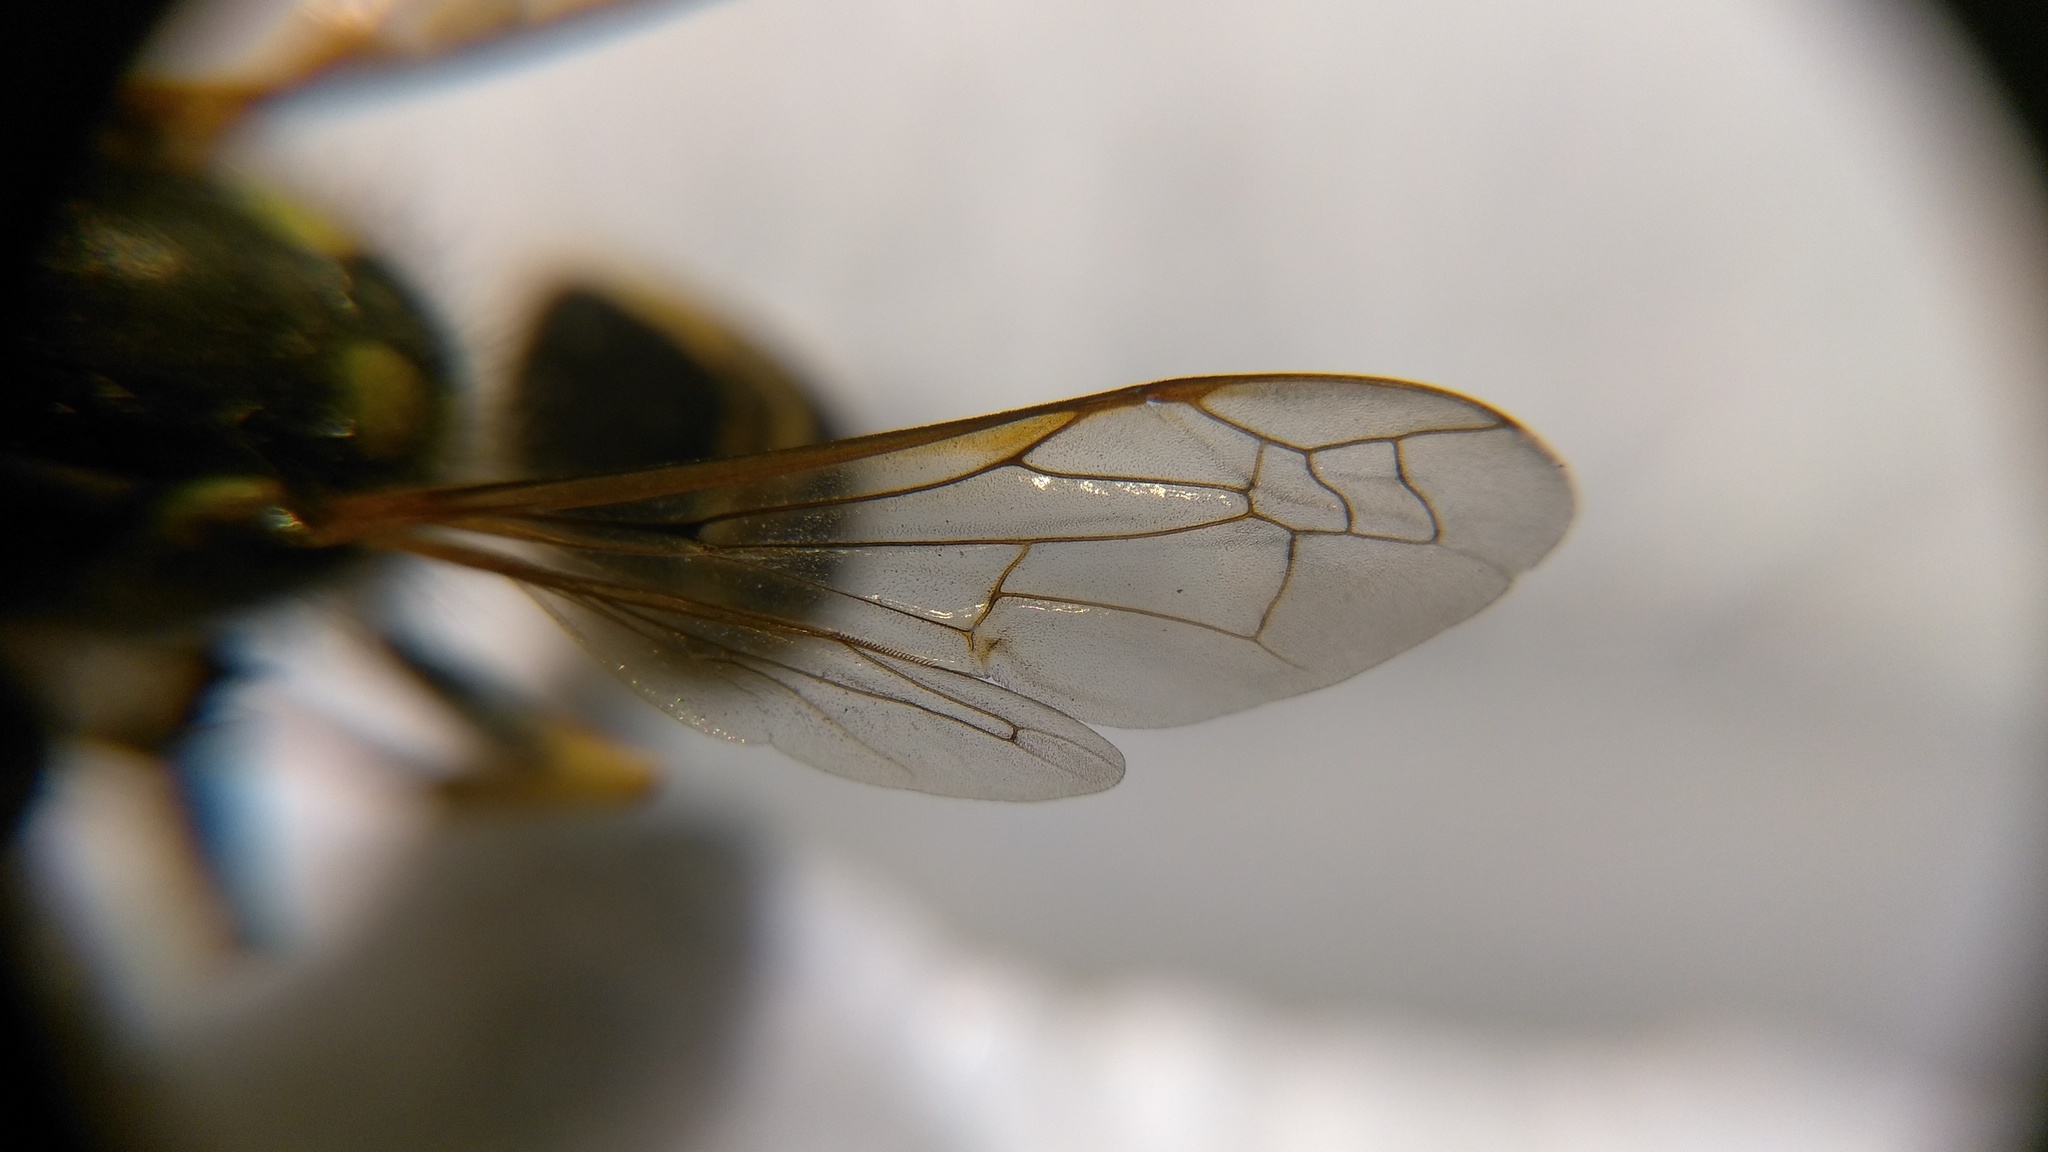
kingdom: Animalia
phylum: Arthropoda
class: Insecta
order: Hymenoptera
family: Vespidae
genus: Vespula
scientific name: Vespula germanica
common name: German wasp
